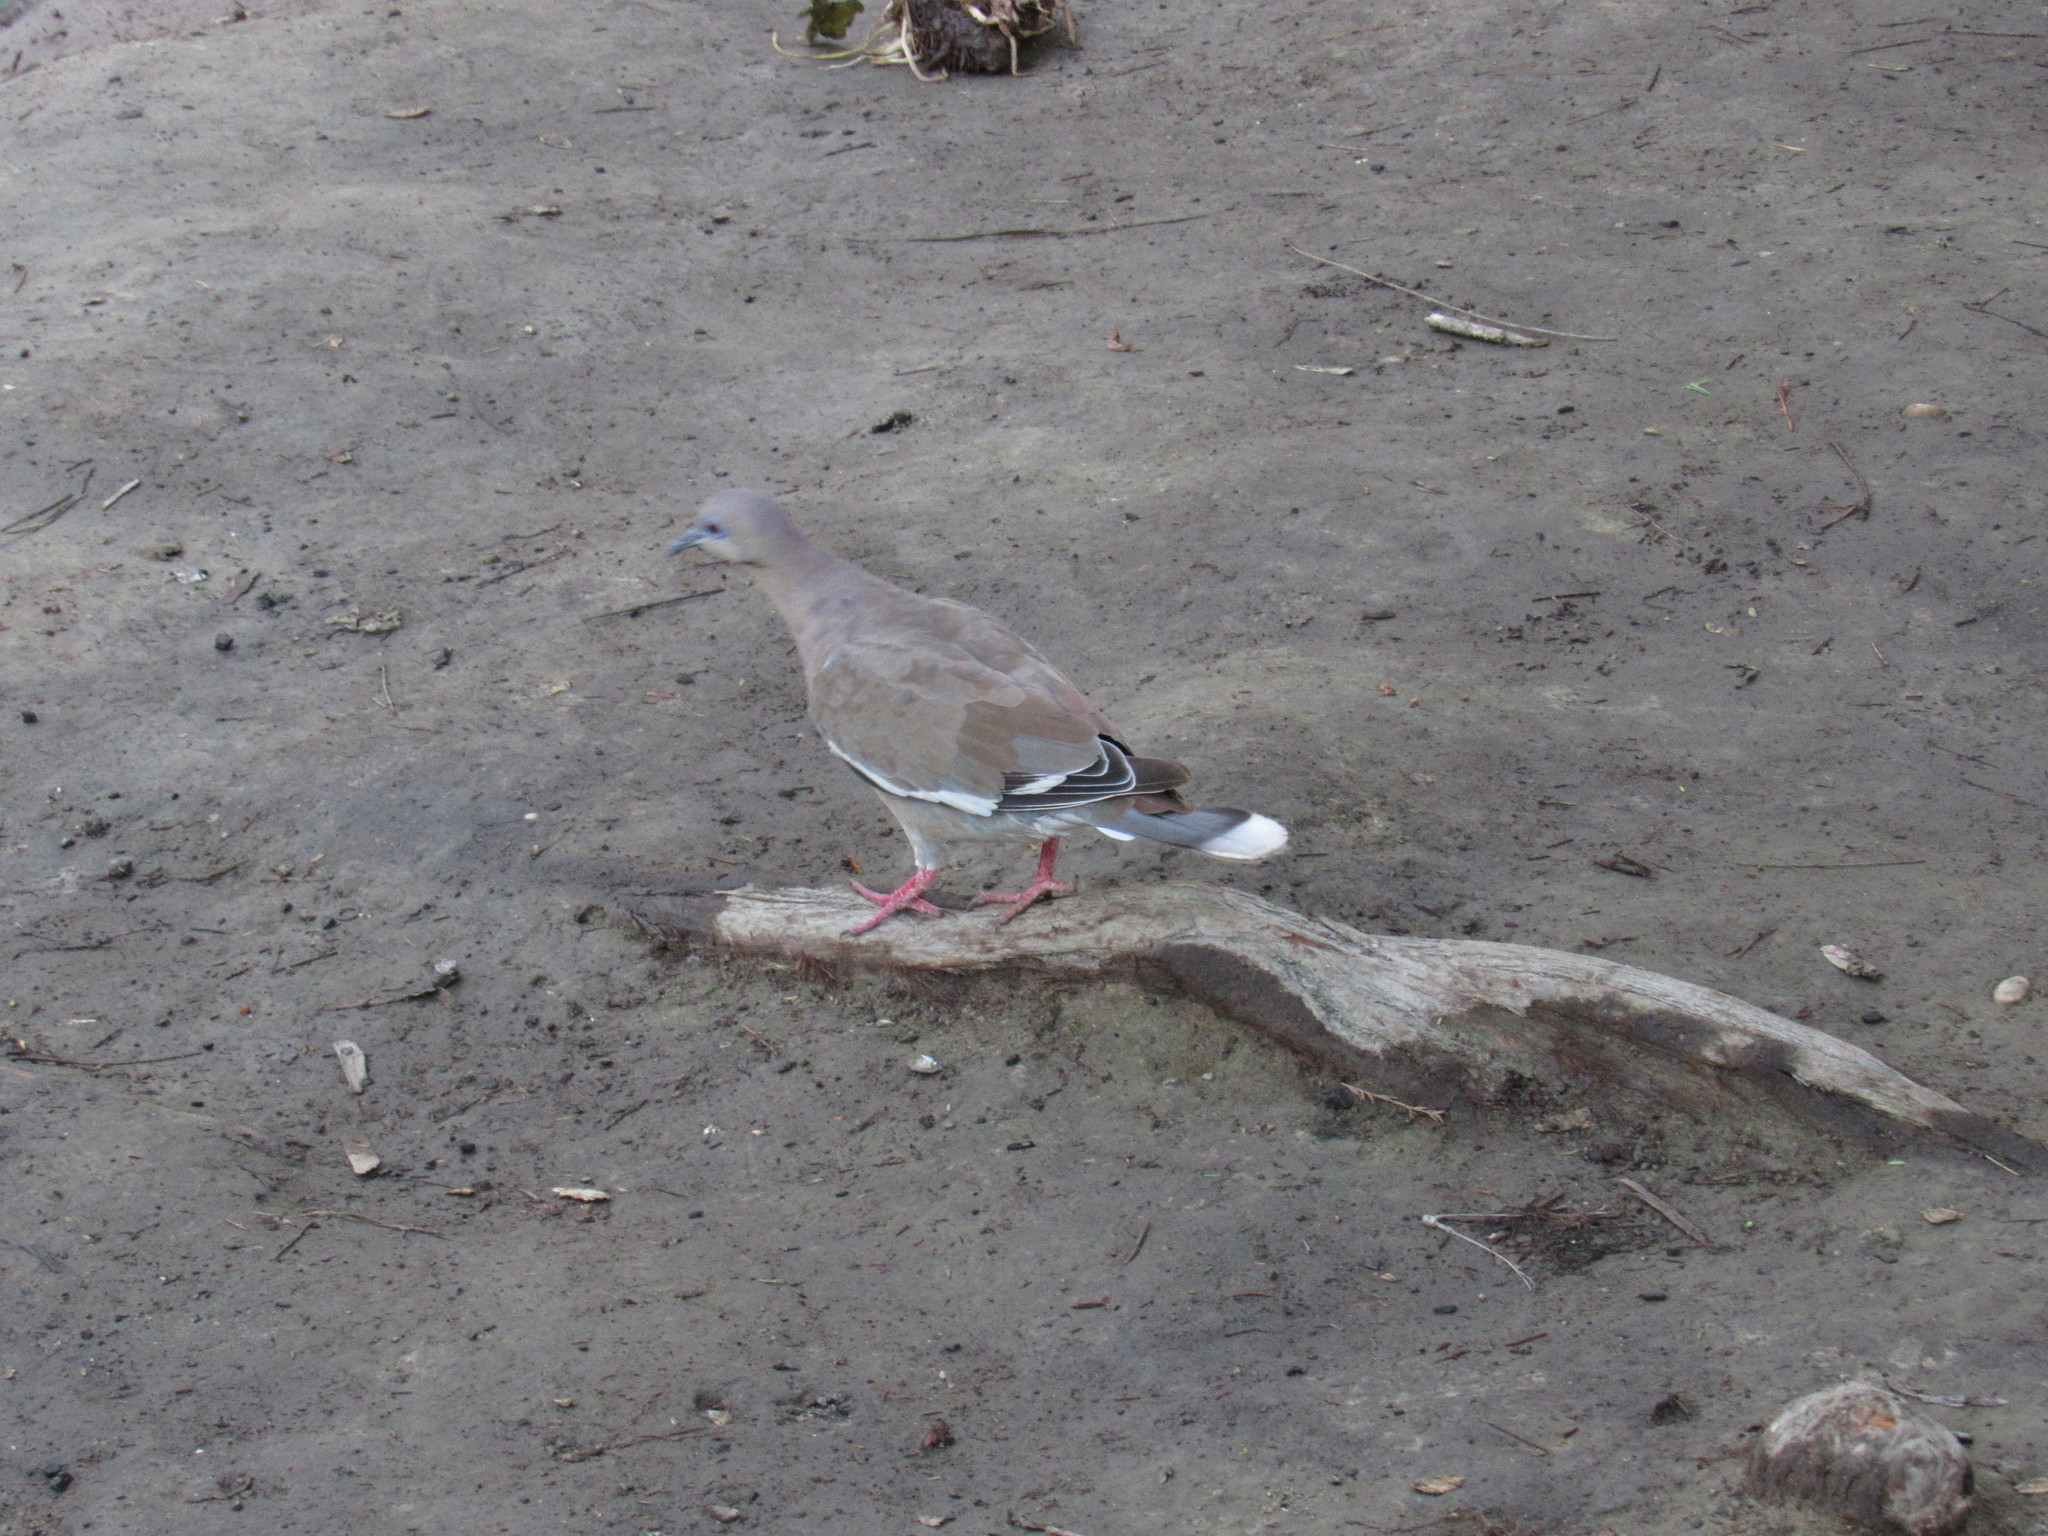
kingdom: Animalia
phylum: Chordata
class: Aves
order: Columbiformes
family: Columbidae
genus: Zenaida
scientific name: Zenaida asiatica
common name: White-winged dove
